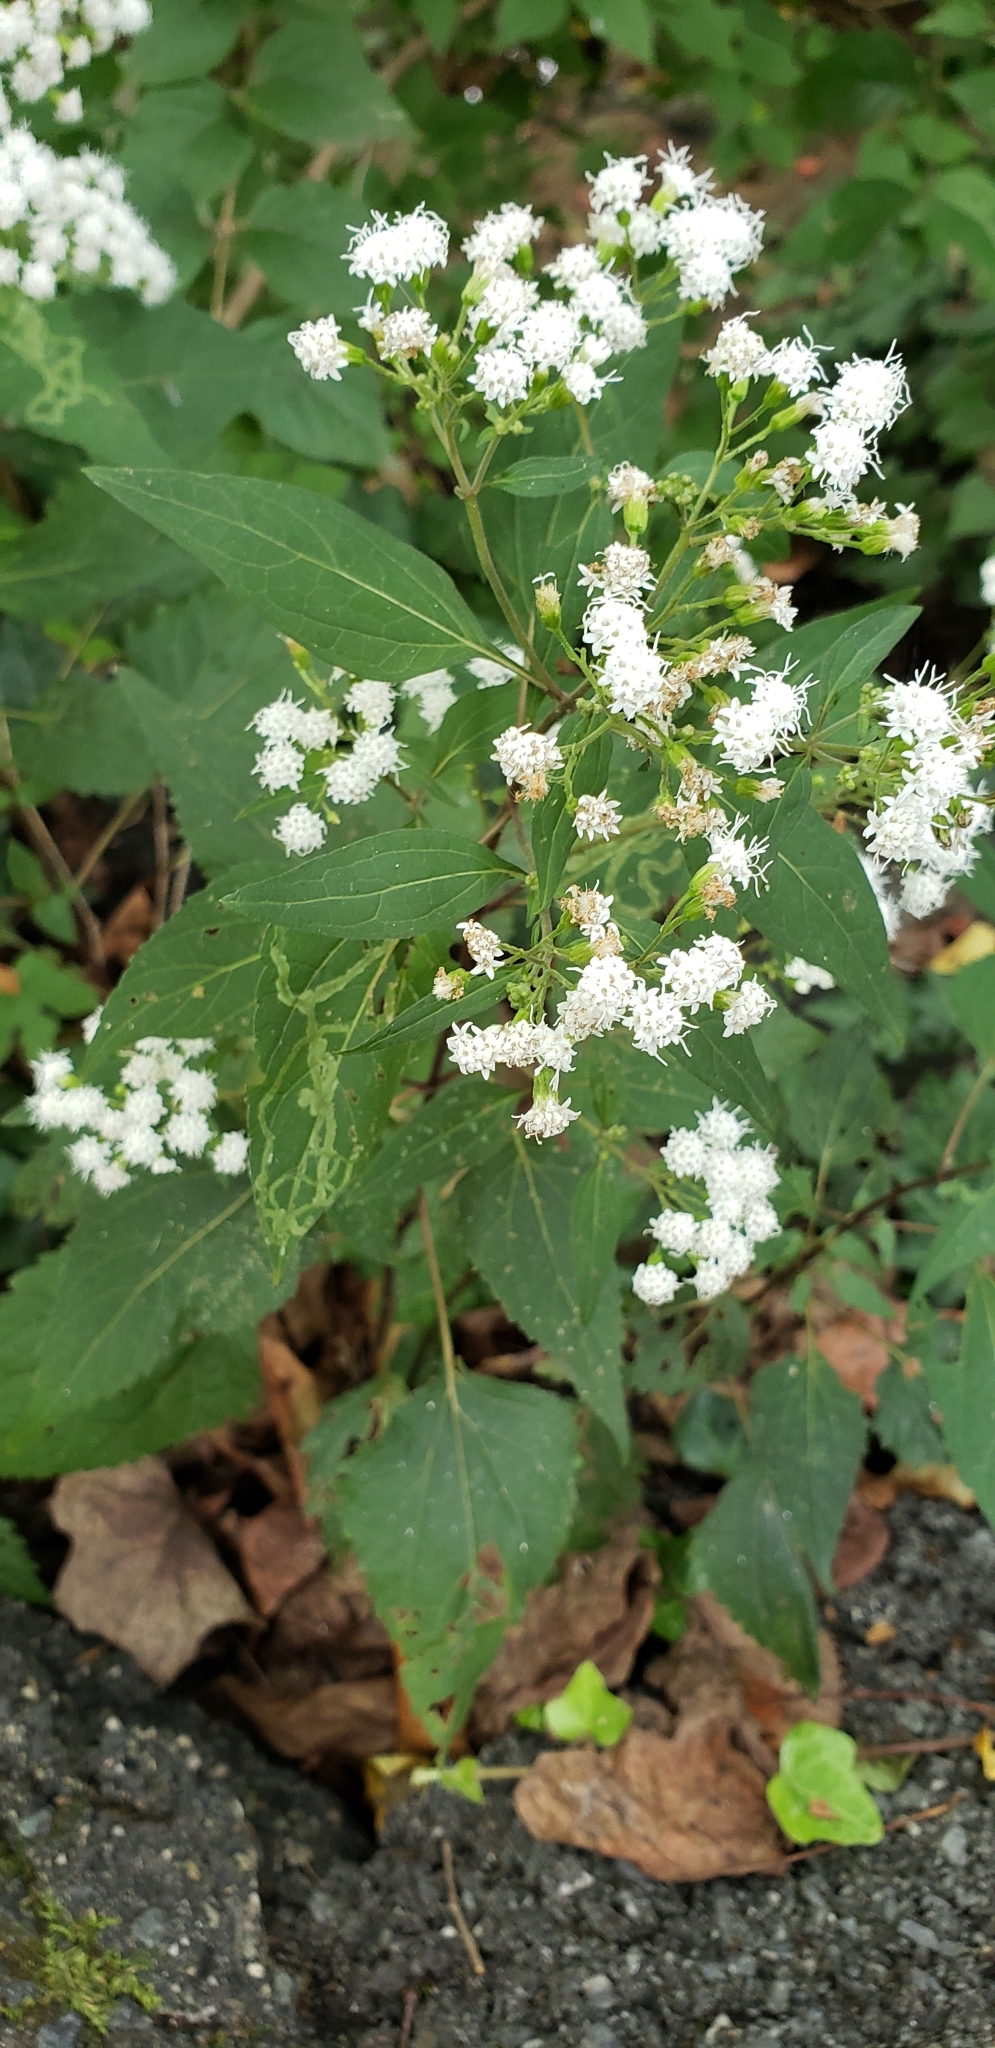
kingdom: Plantae
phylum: Tracheophyta
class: Magnoliopsida
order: Asterales
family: Asteraceae
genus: Ageratina
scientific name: Ageratina altissima
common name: White snakeroot
